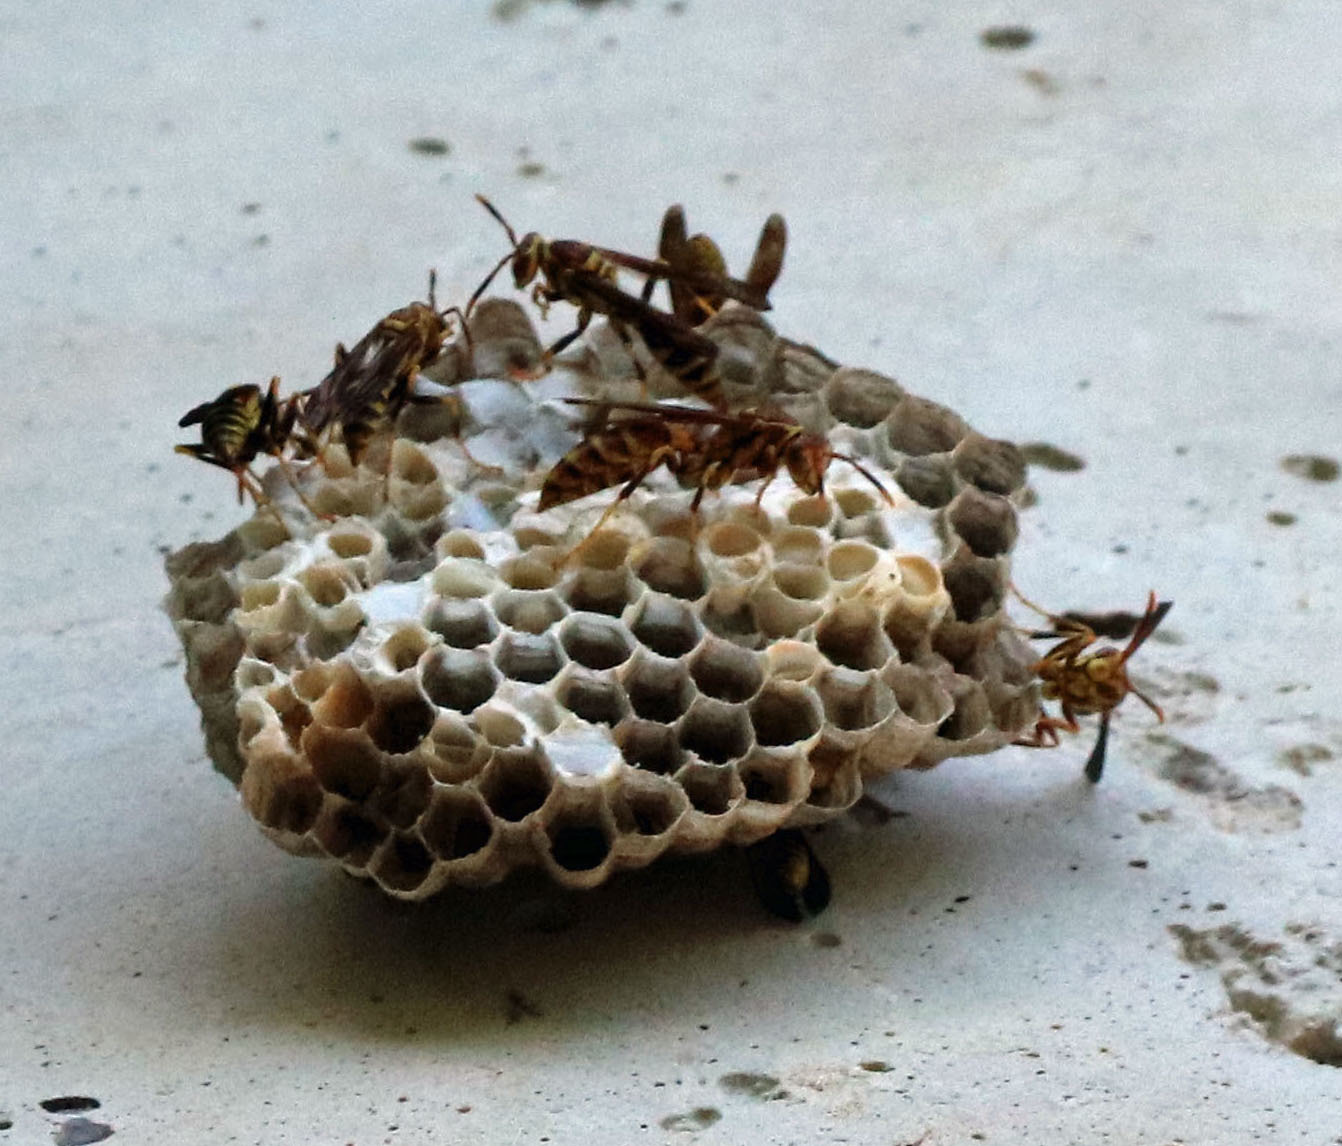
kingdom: Animalia
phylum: Arthropoda
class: Insecta
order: Hymenoptera
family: Eumenidae
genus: Polistes
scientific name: Polistes exclamans
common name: Paper wasp
